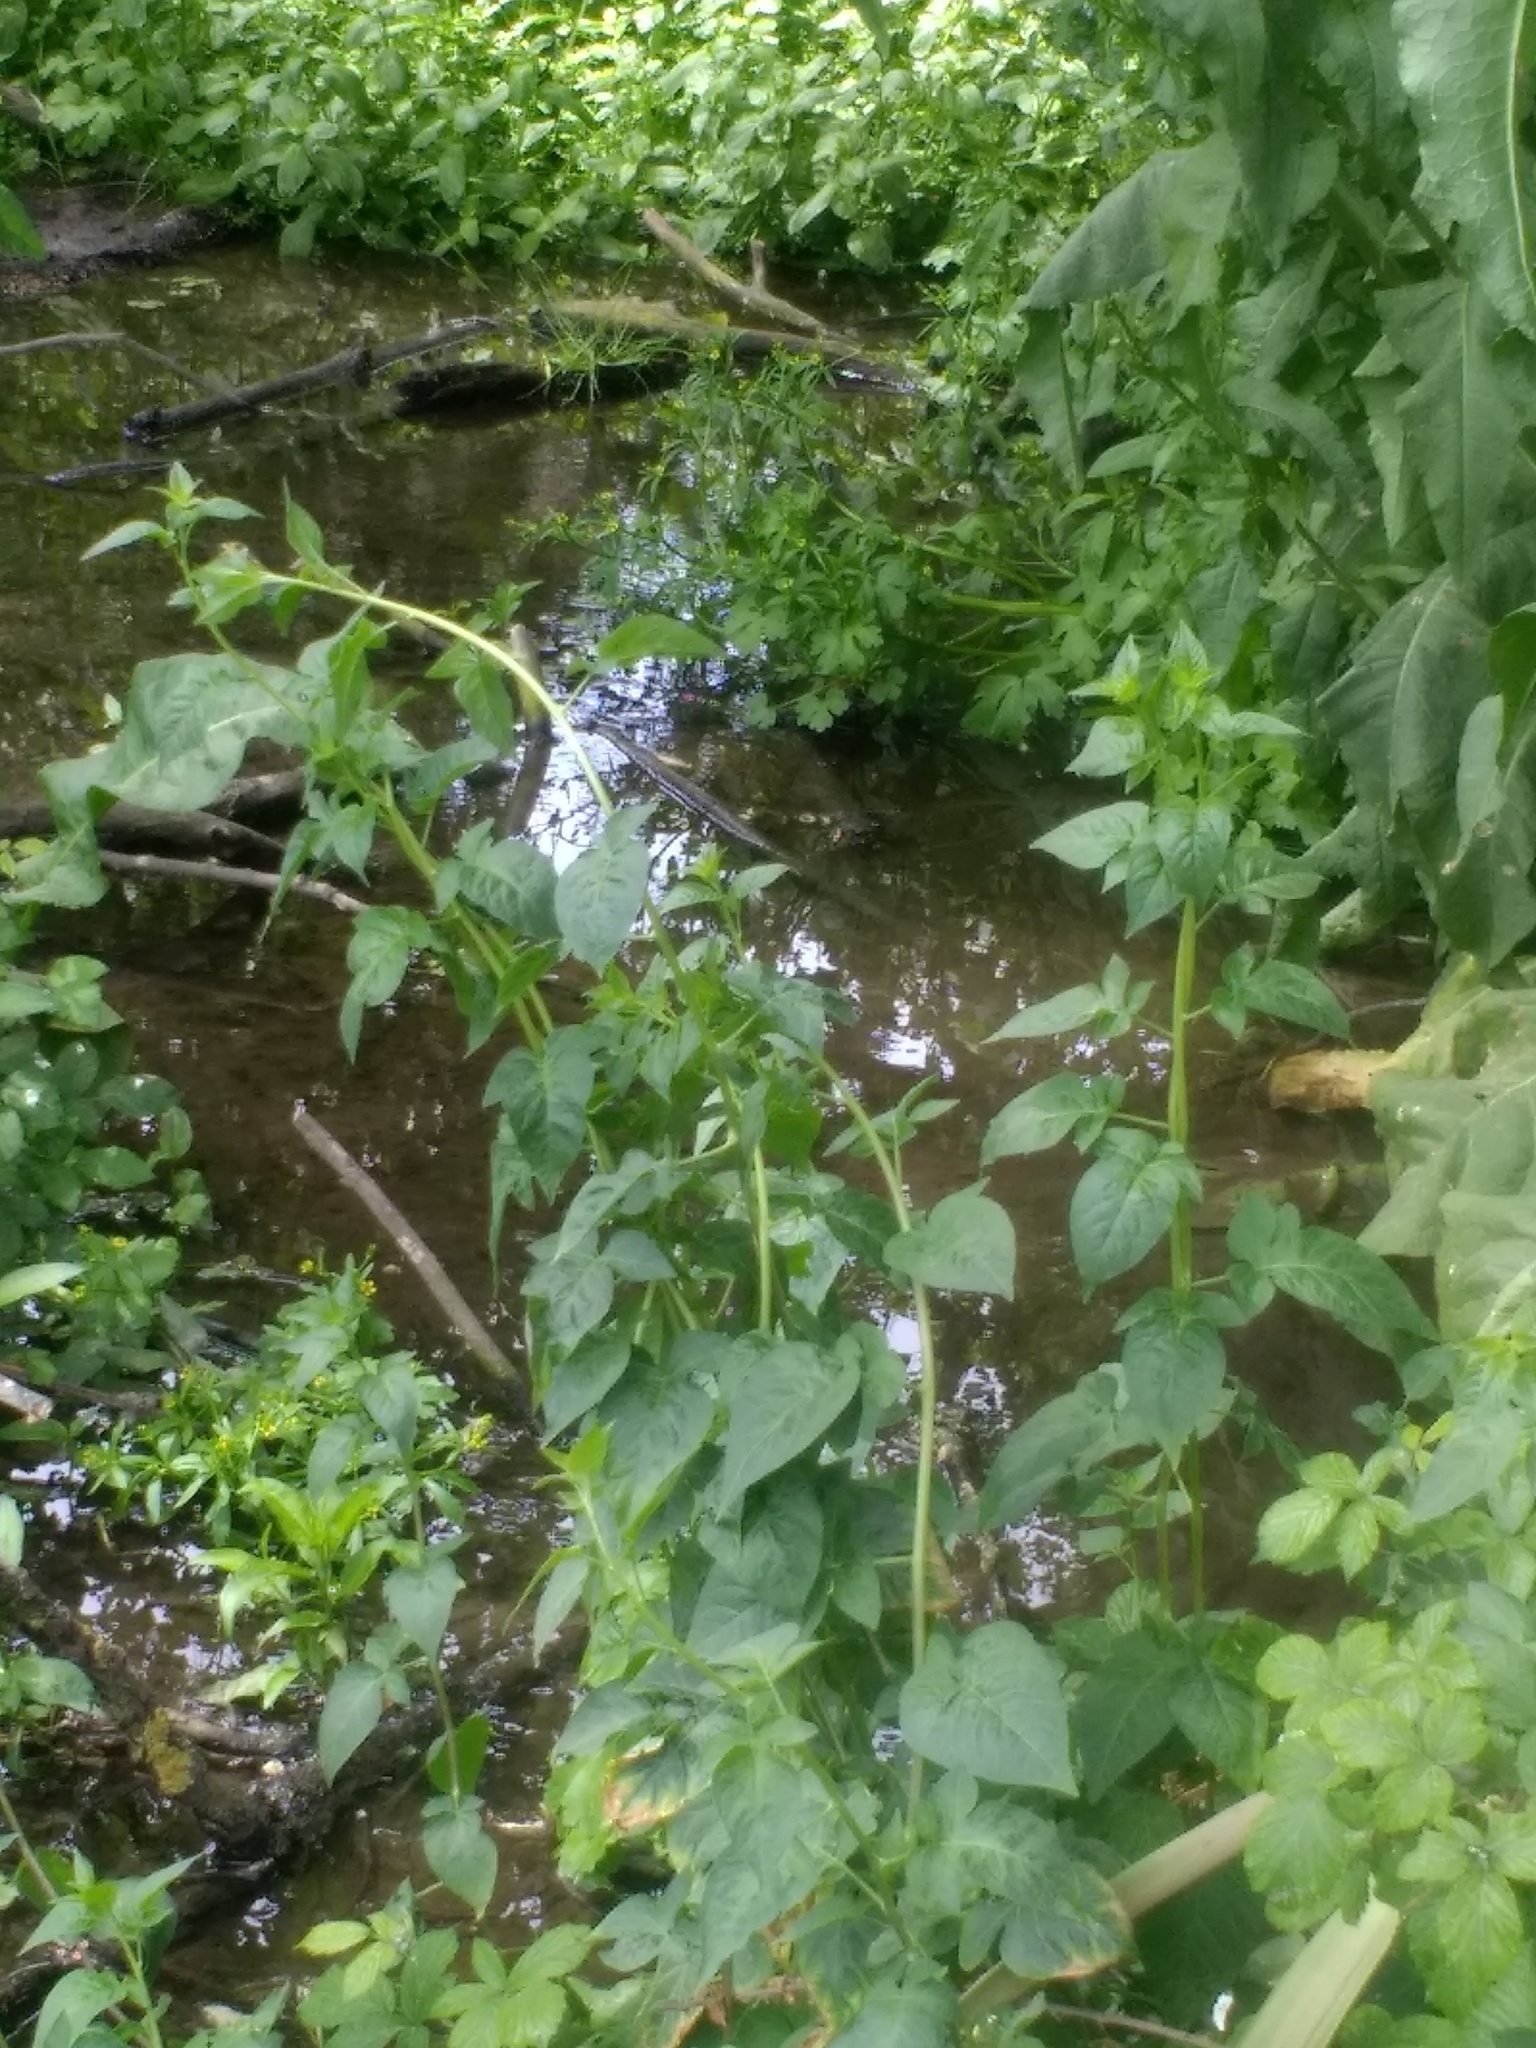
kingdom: Plantae
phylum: Tracheophyta
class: Magnoliopsida
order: Solanales
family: Solanaceae
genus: Solanum
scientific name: Solanum dulcamara
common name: Climbing nightshade
